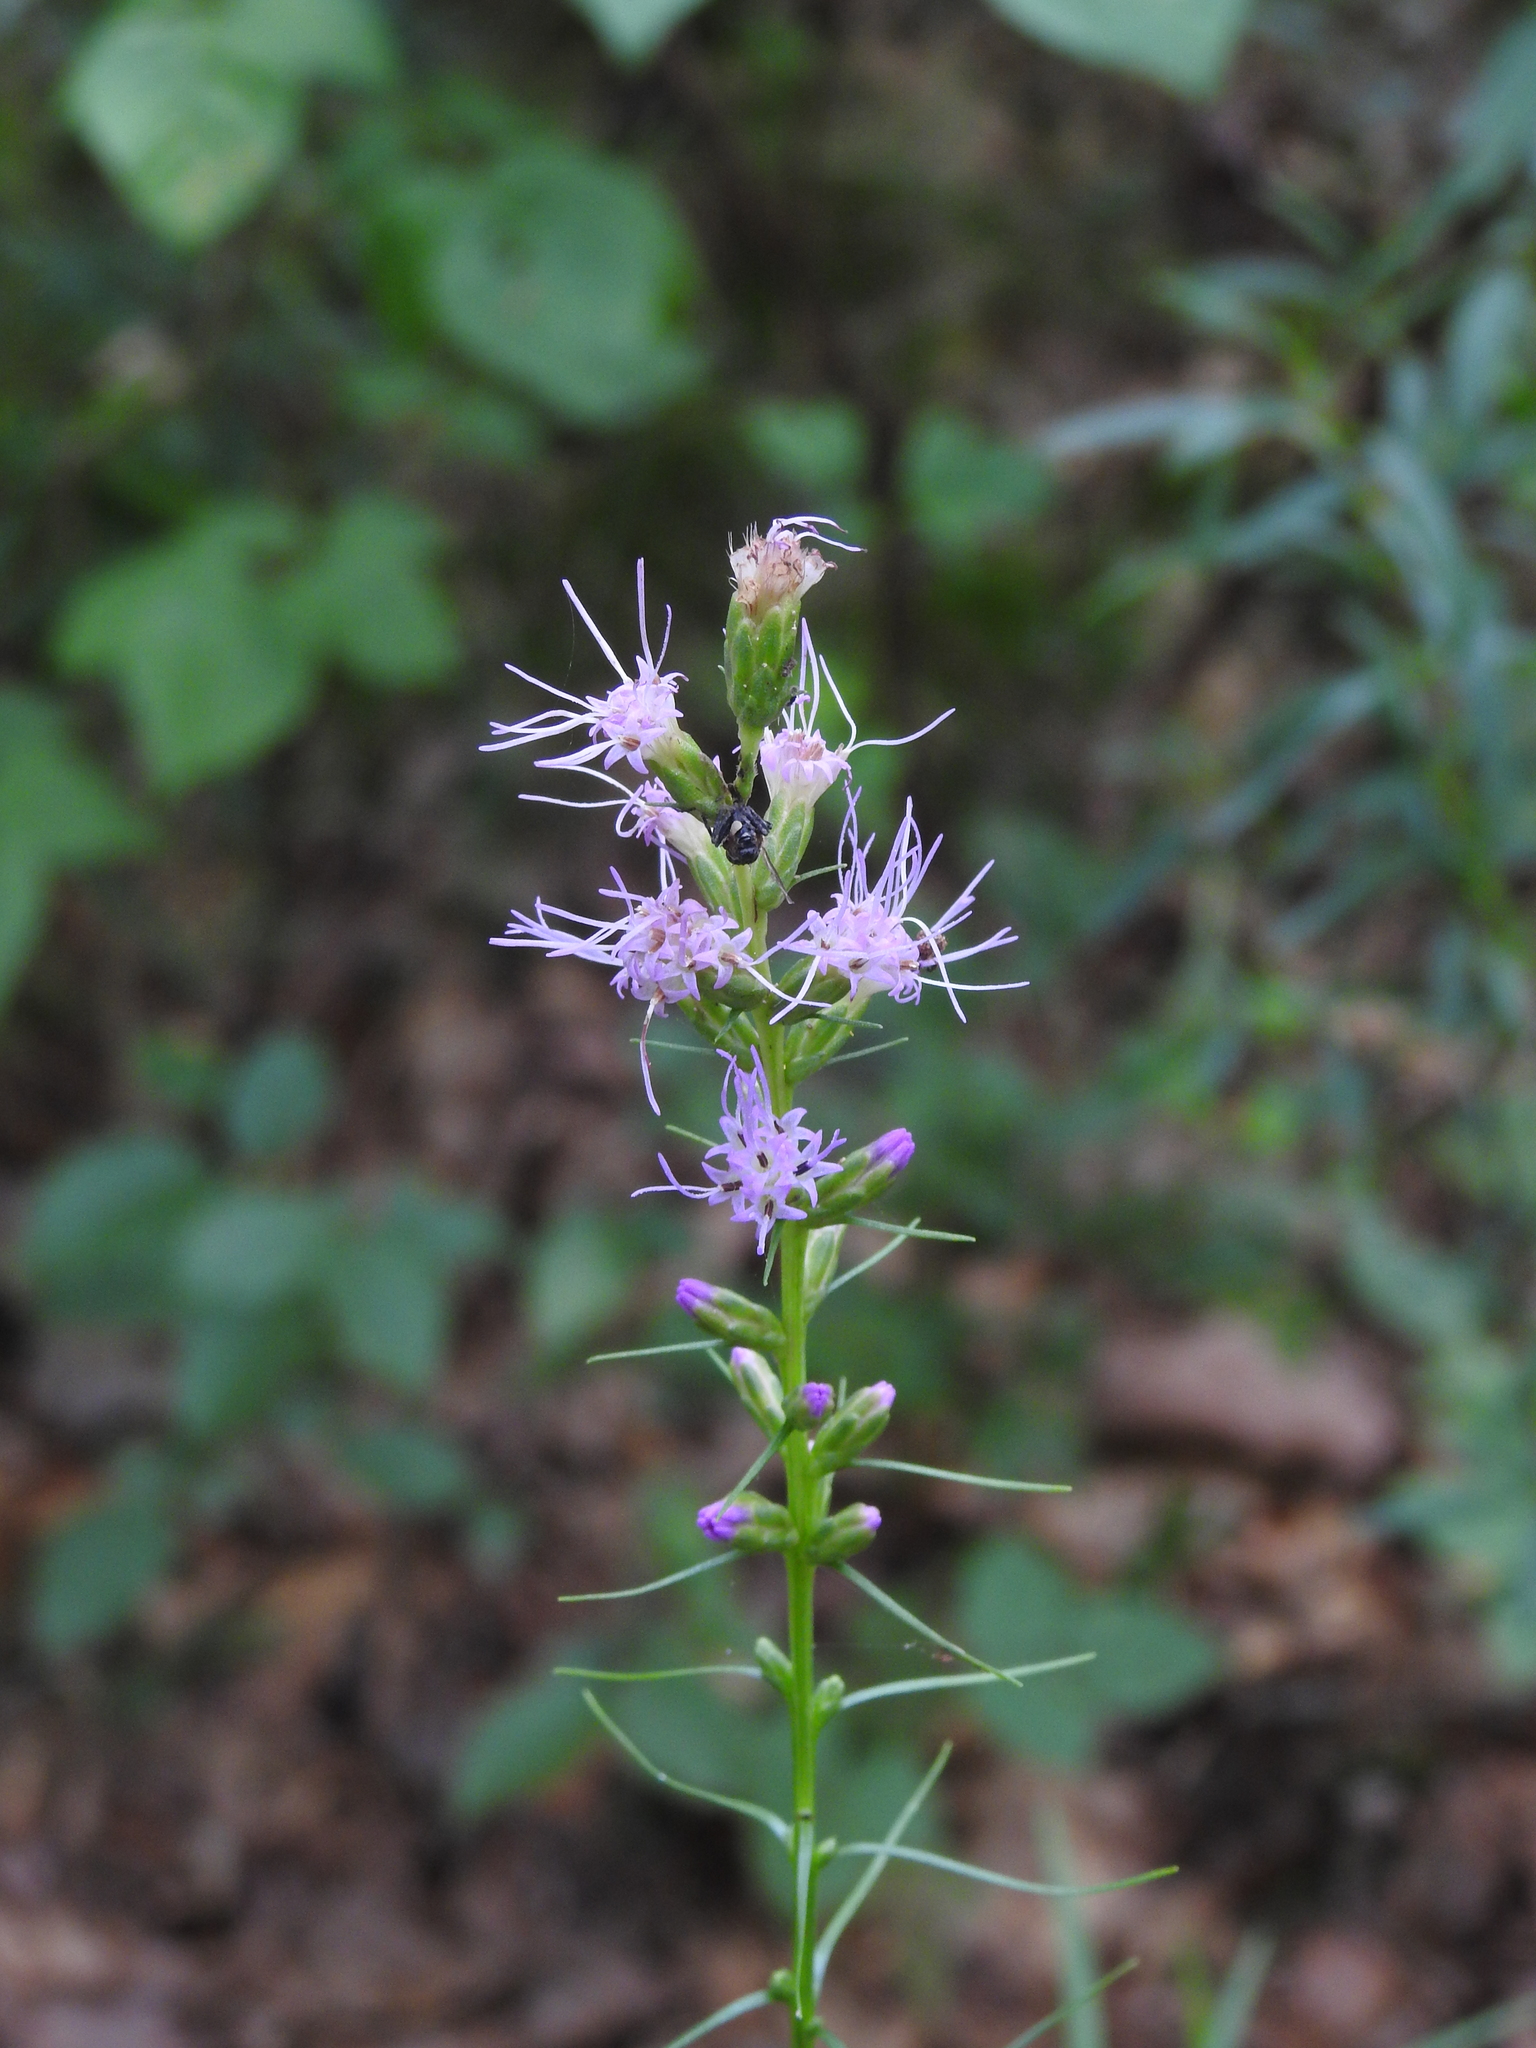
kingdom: Plantae
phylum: Tracheophyta
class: Magnoliopsida
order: Asterales
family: Asteraceae
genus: Liatris
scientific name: Liatris spicata
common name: Florist gayfeather
